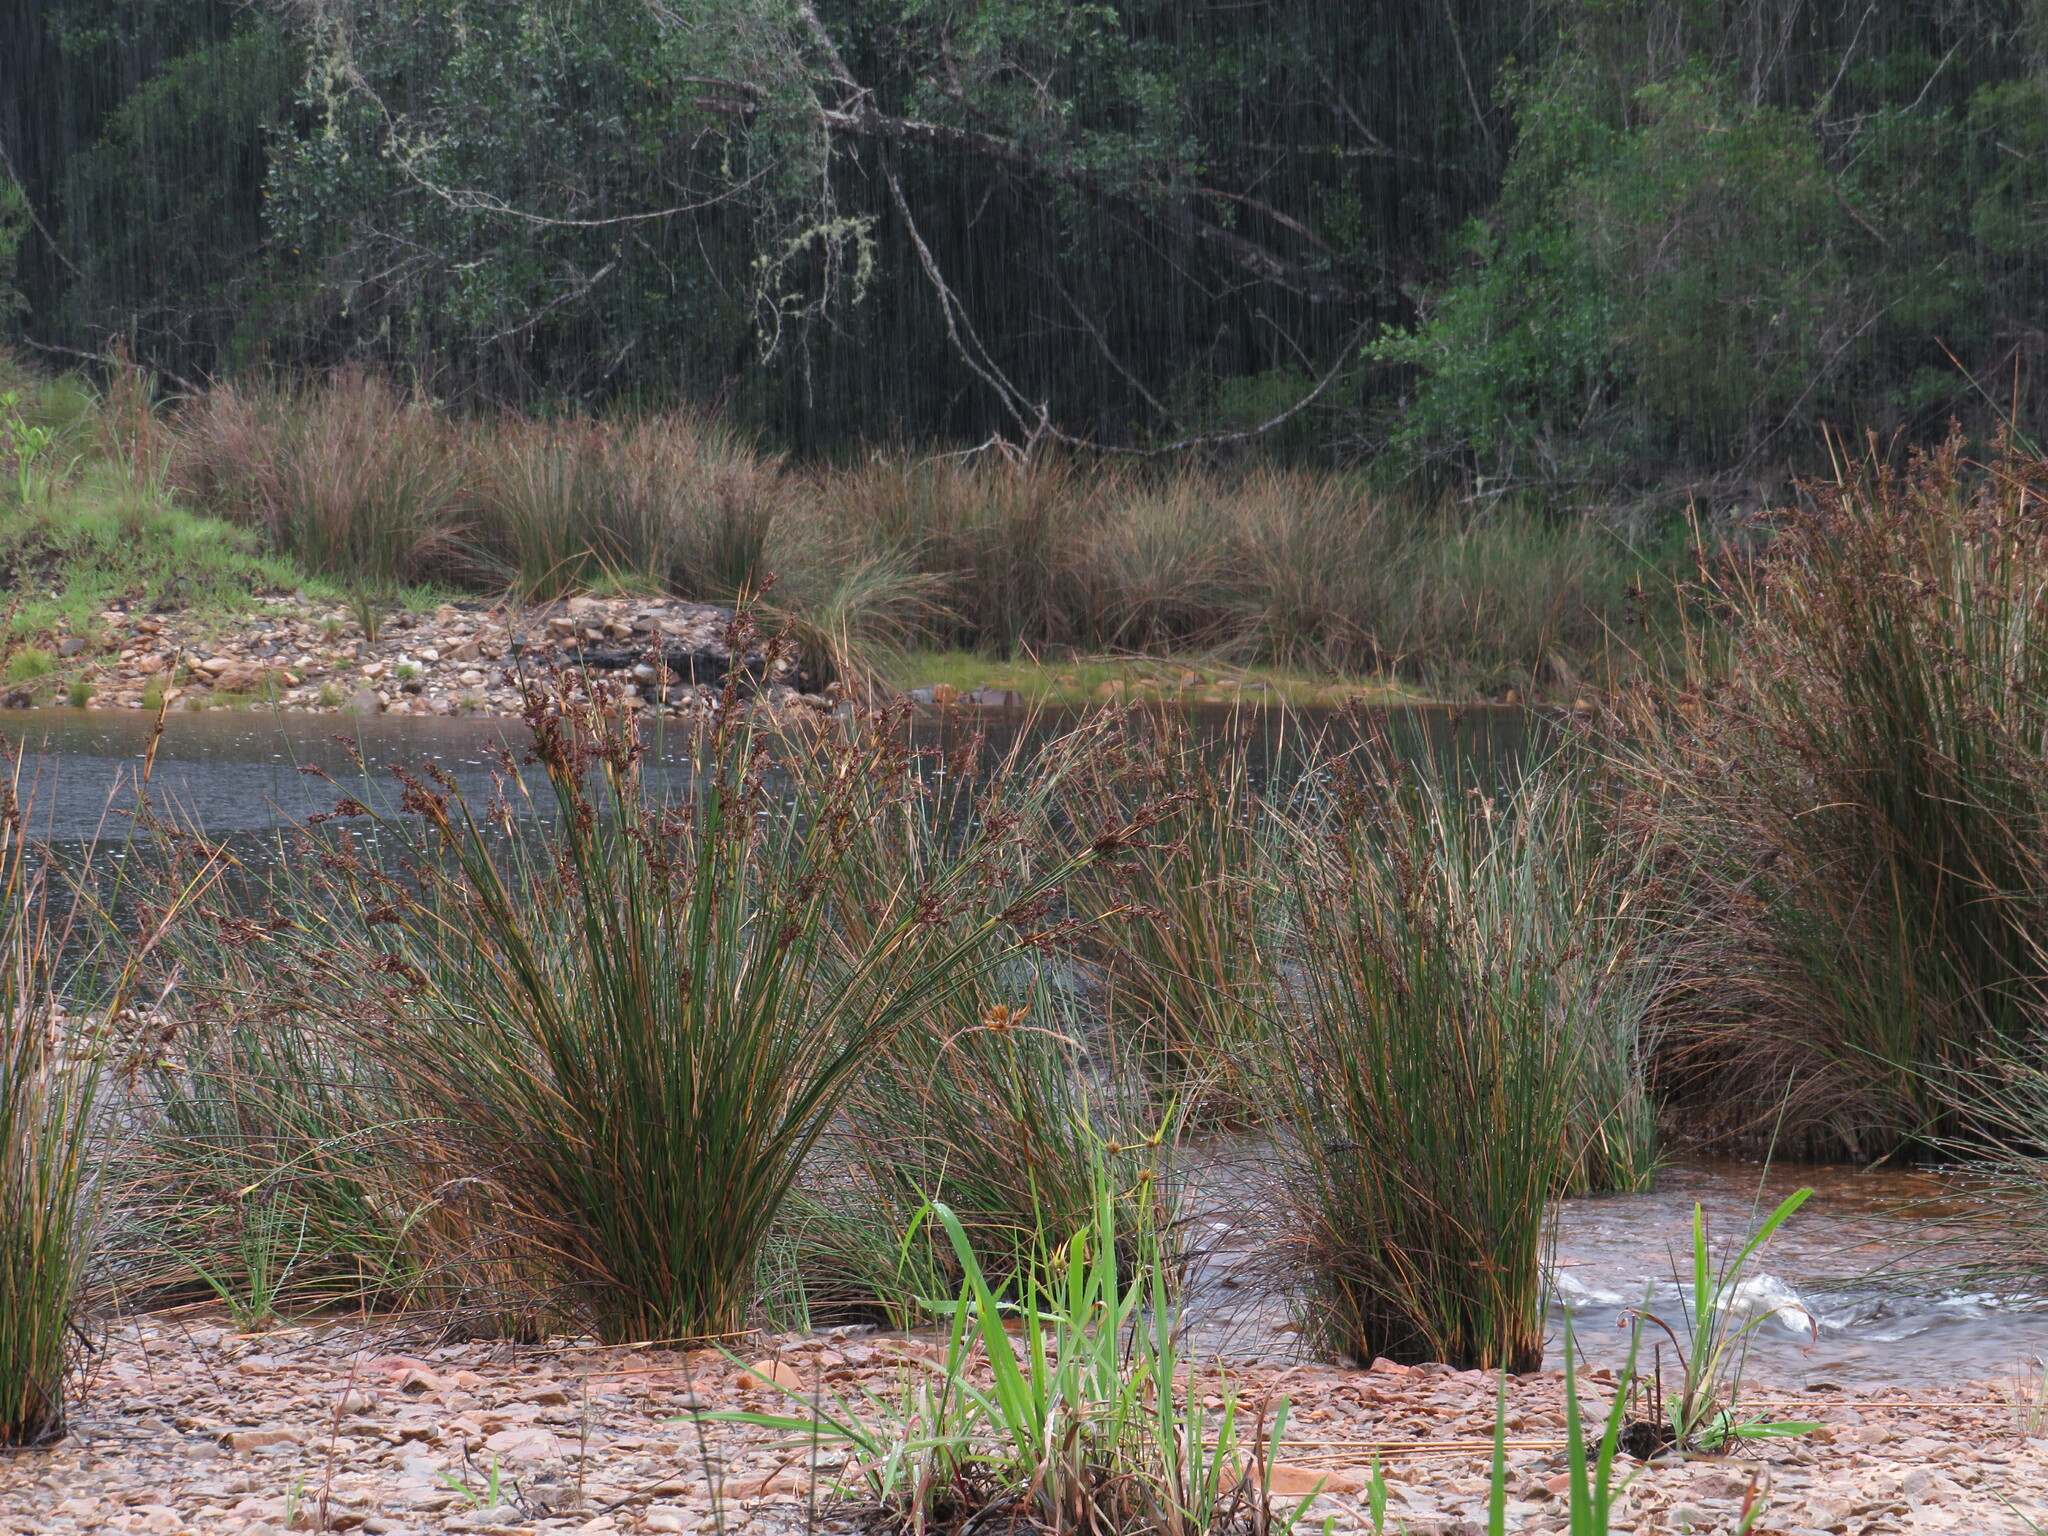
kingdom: Plantae
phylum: Tracheophyta
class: Liliopsida
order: Poales
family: Juncaceae
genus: Juncus
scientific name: Juncus kraussii
